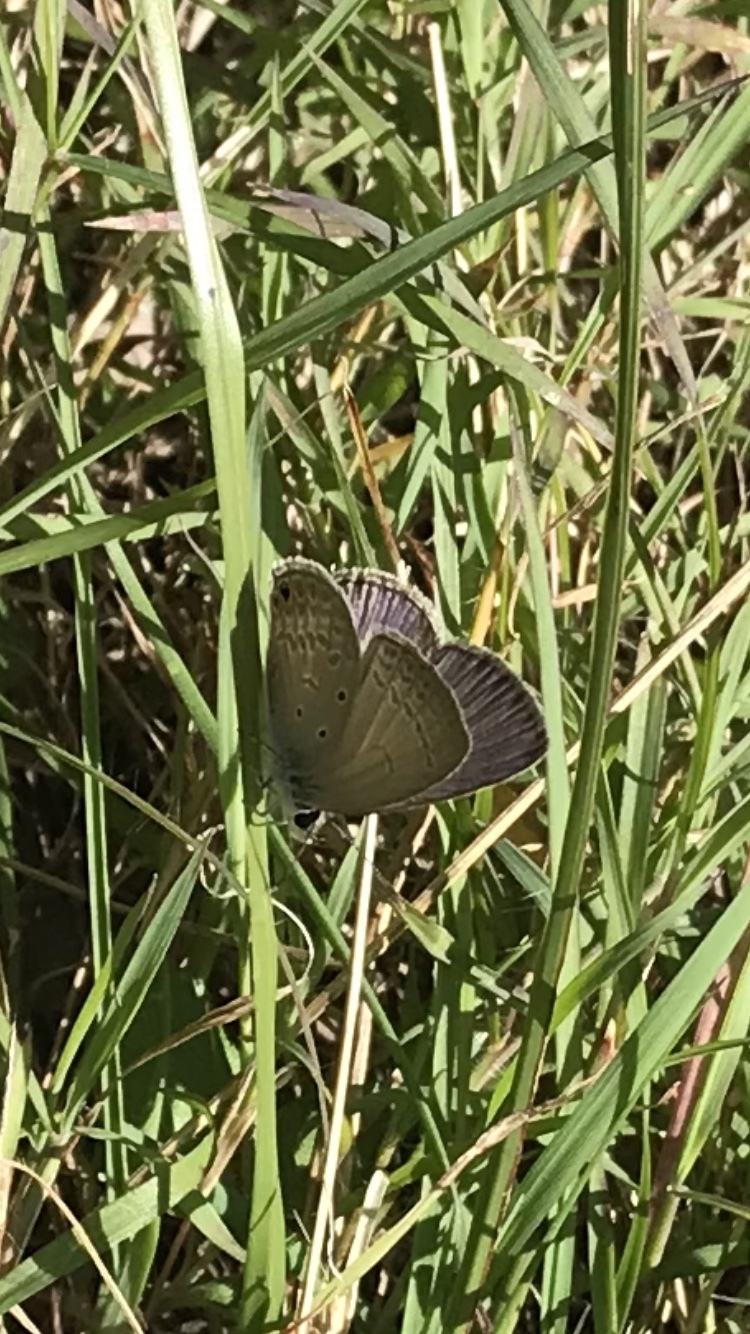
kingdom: Animalia
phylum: Arthropoda
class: Insecta
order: Lepidoptera
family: Lycaenidae
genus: Euchrysops
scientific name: Euchrysops cnejus
